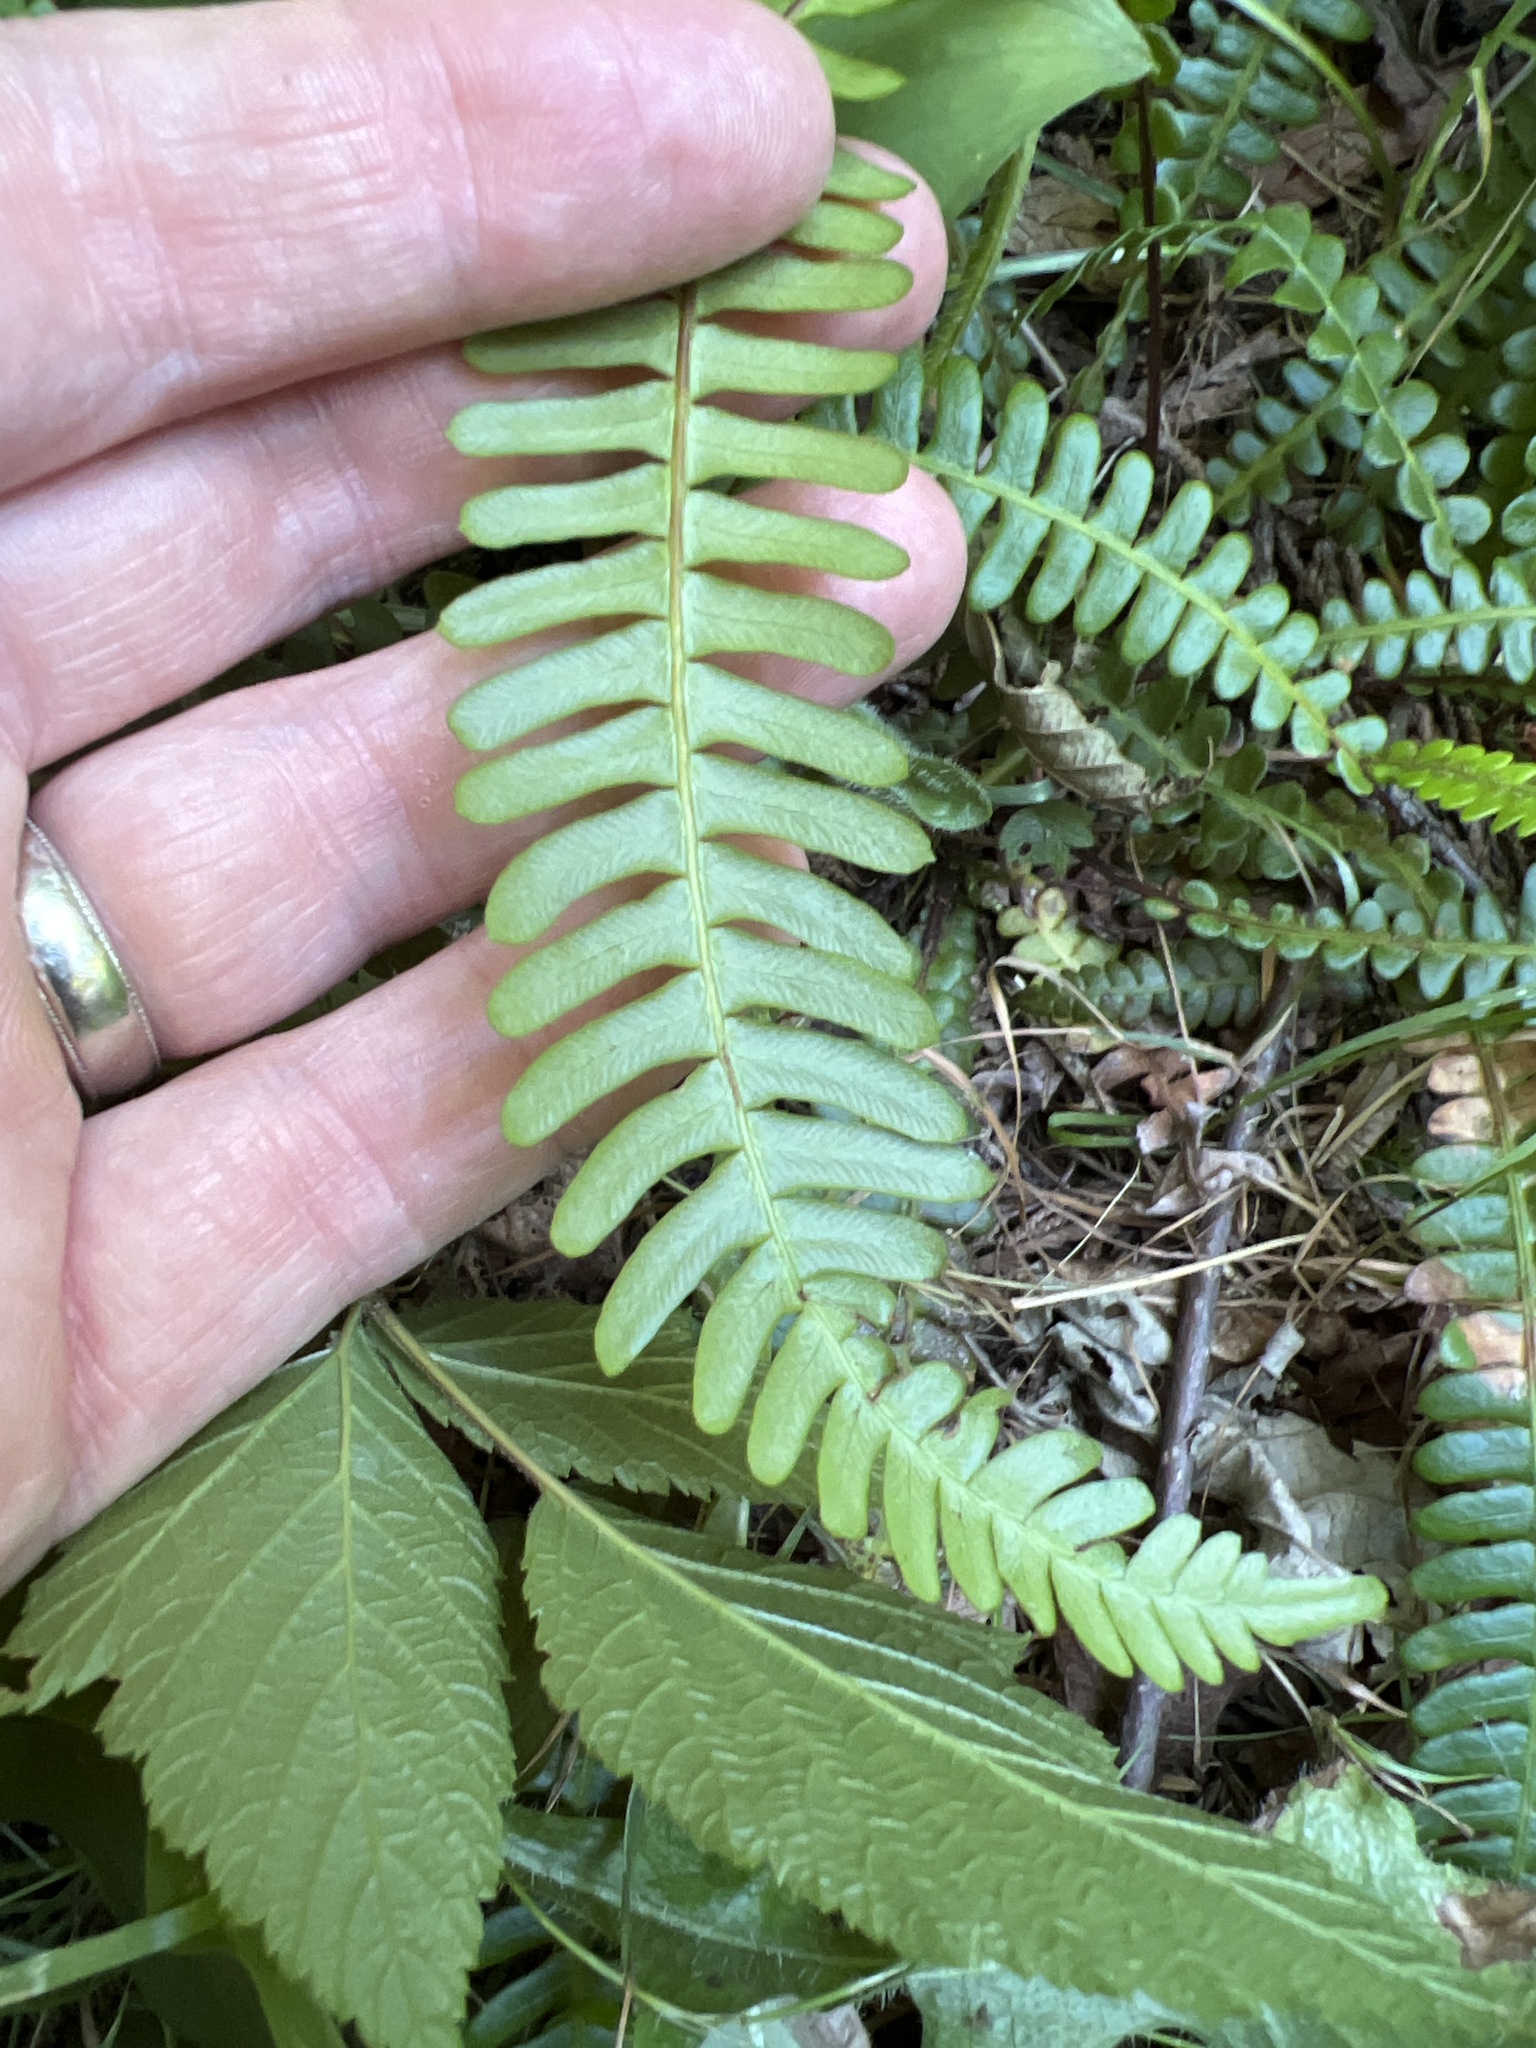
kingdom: Plantae
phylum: Tracheophyta
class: Polypodiopsida
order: Polypodiales
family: Blechnaceae
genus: Struthiopteris
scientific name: Struthiopteris spicant
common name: Deer fern
